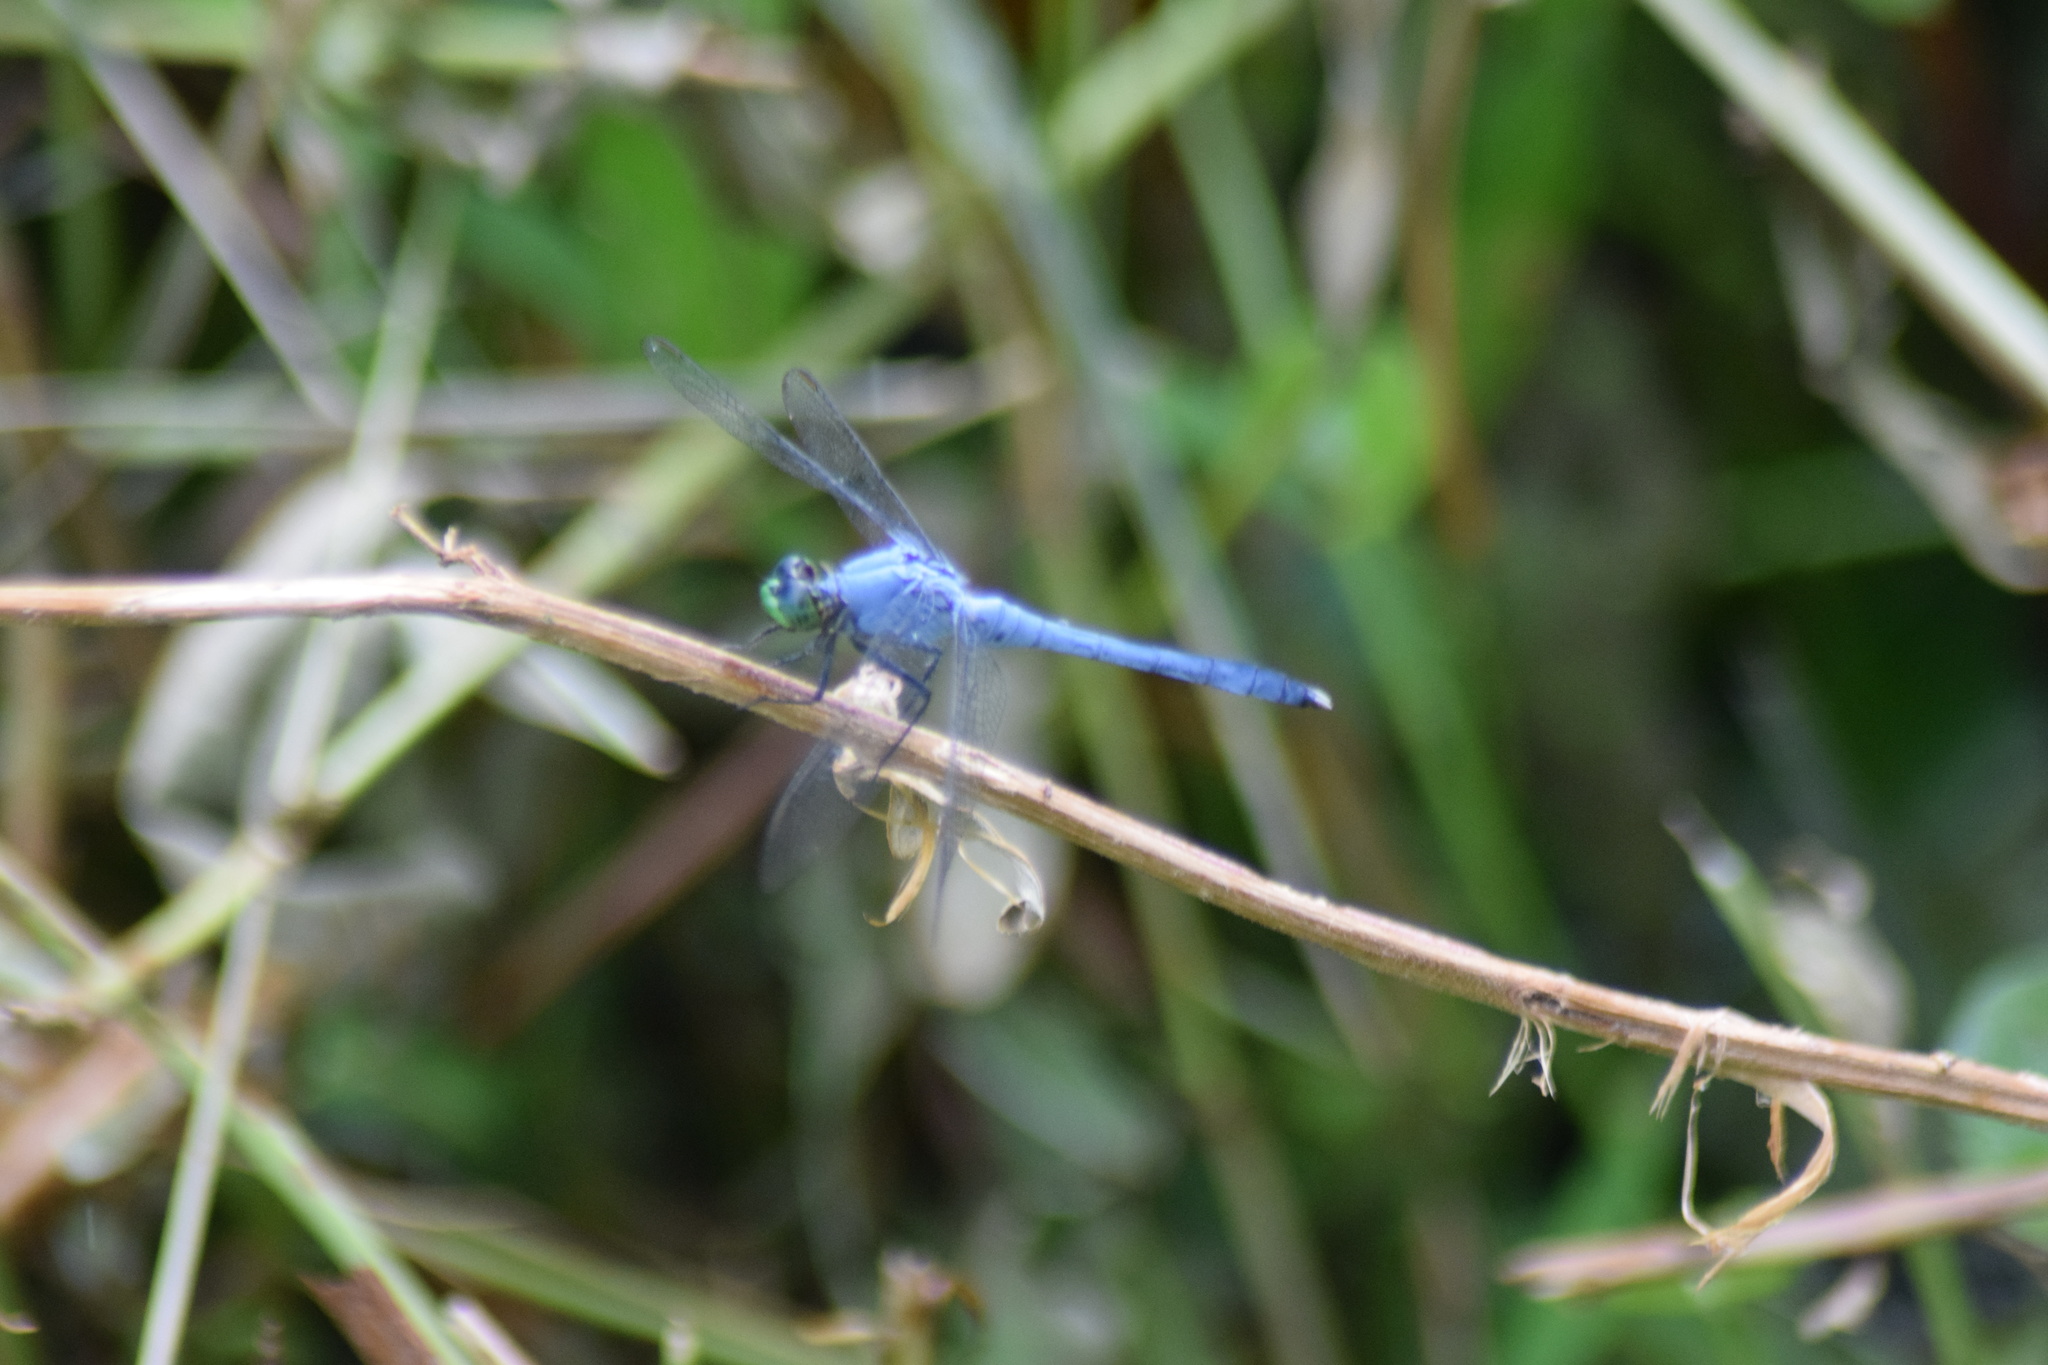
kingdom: Animalia
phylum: Arthropoda
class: Insecta
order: Odonata
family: Libellulidae
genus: Erythemis
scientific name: Erythemis simplicicollis
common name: Eastern pondhawk
